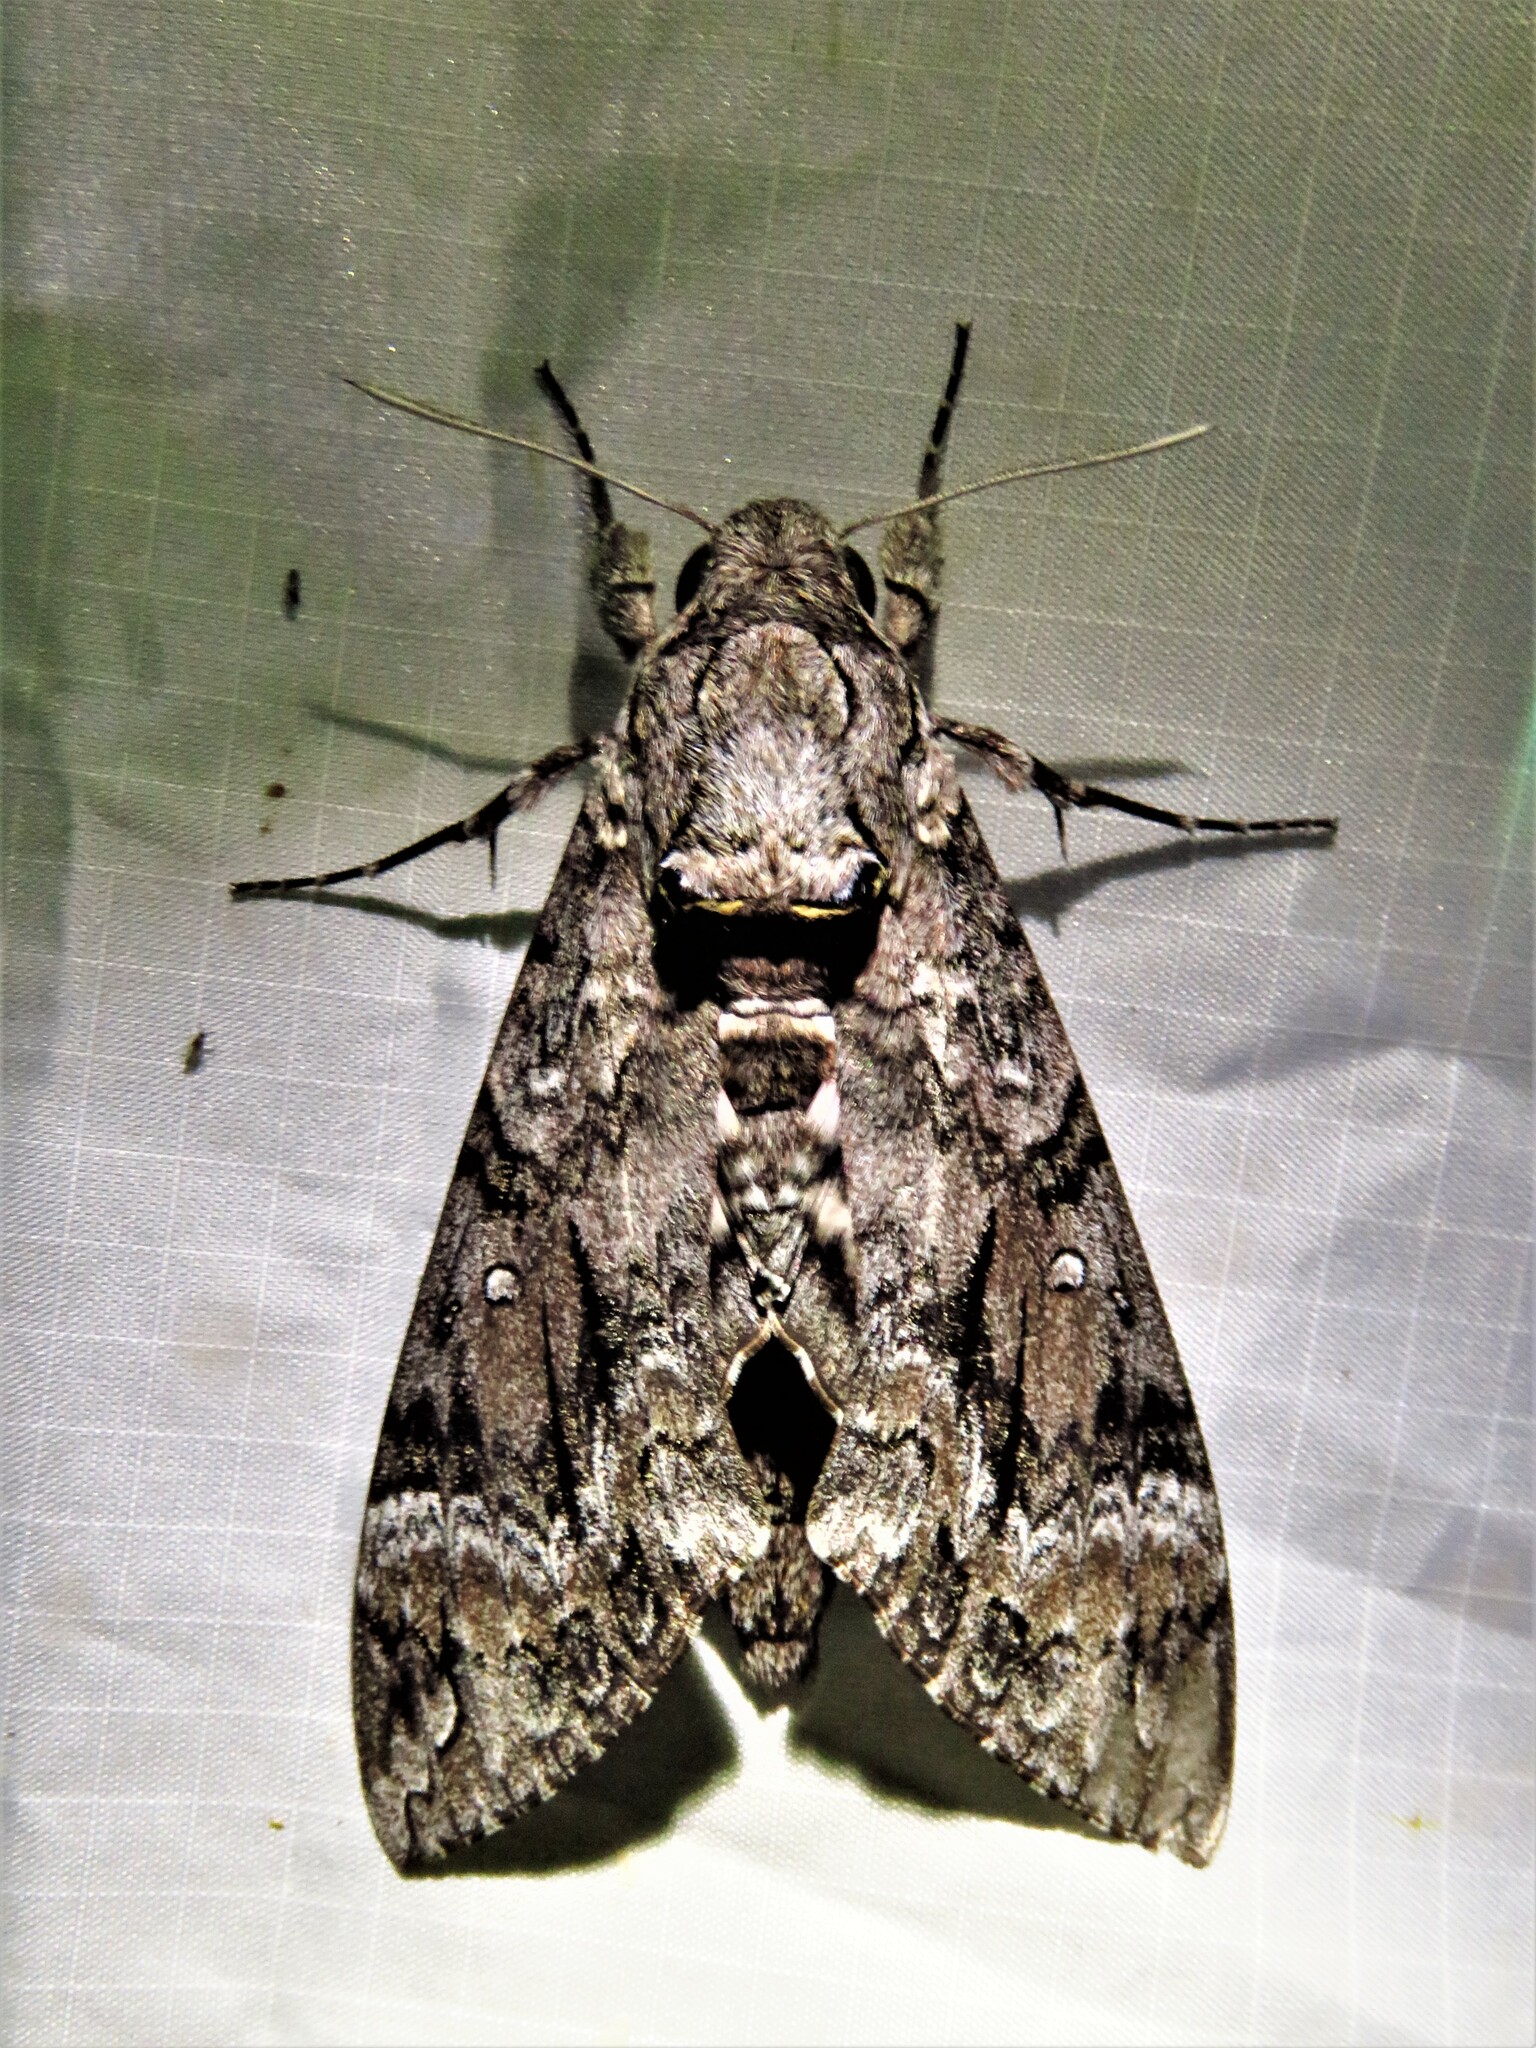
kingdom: Animalia
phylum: Arthropoda
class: Insecta
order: Lepidoptera
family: Sphingidae
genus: Agrius
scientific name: Agrius cingulata
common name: Pink-spotted hawkmoth
